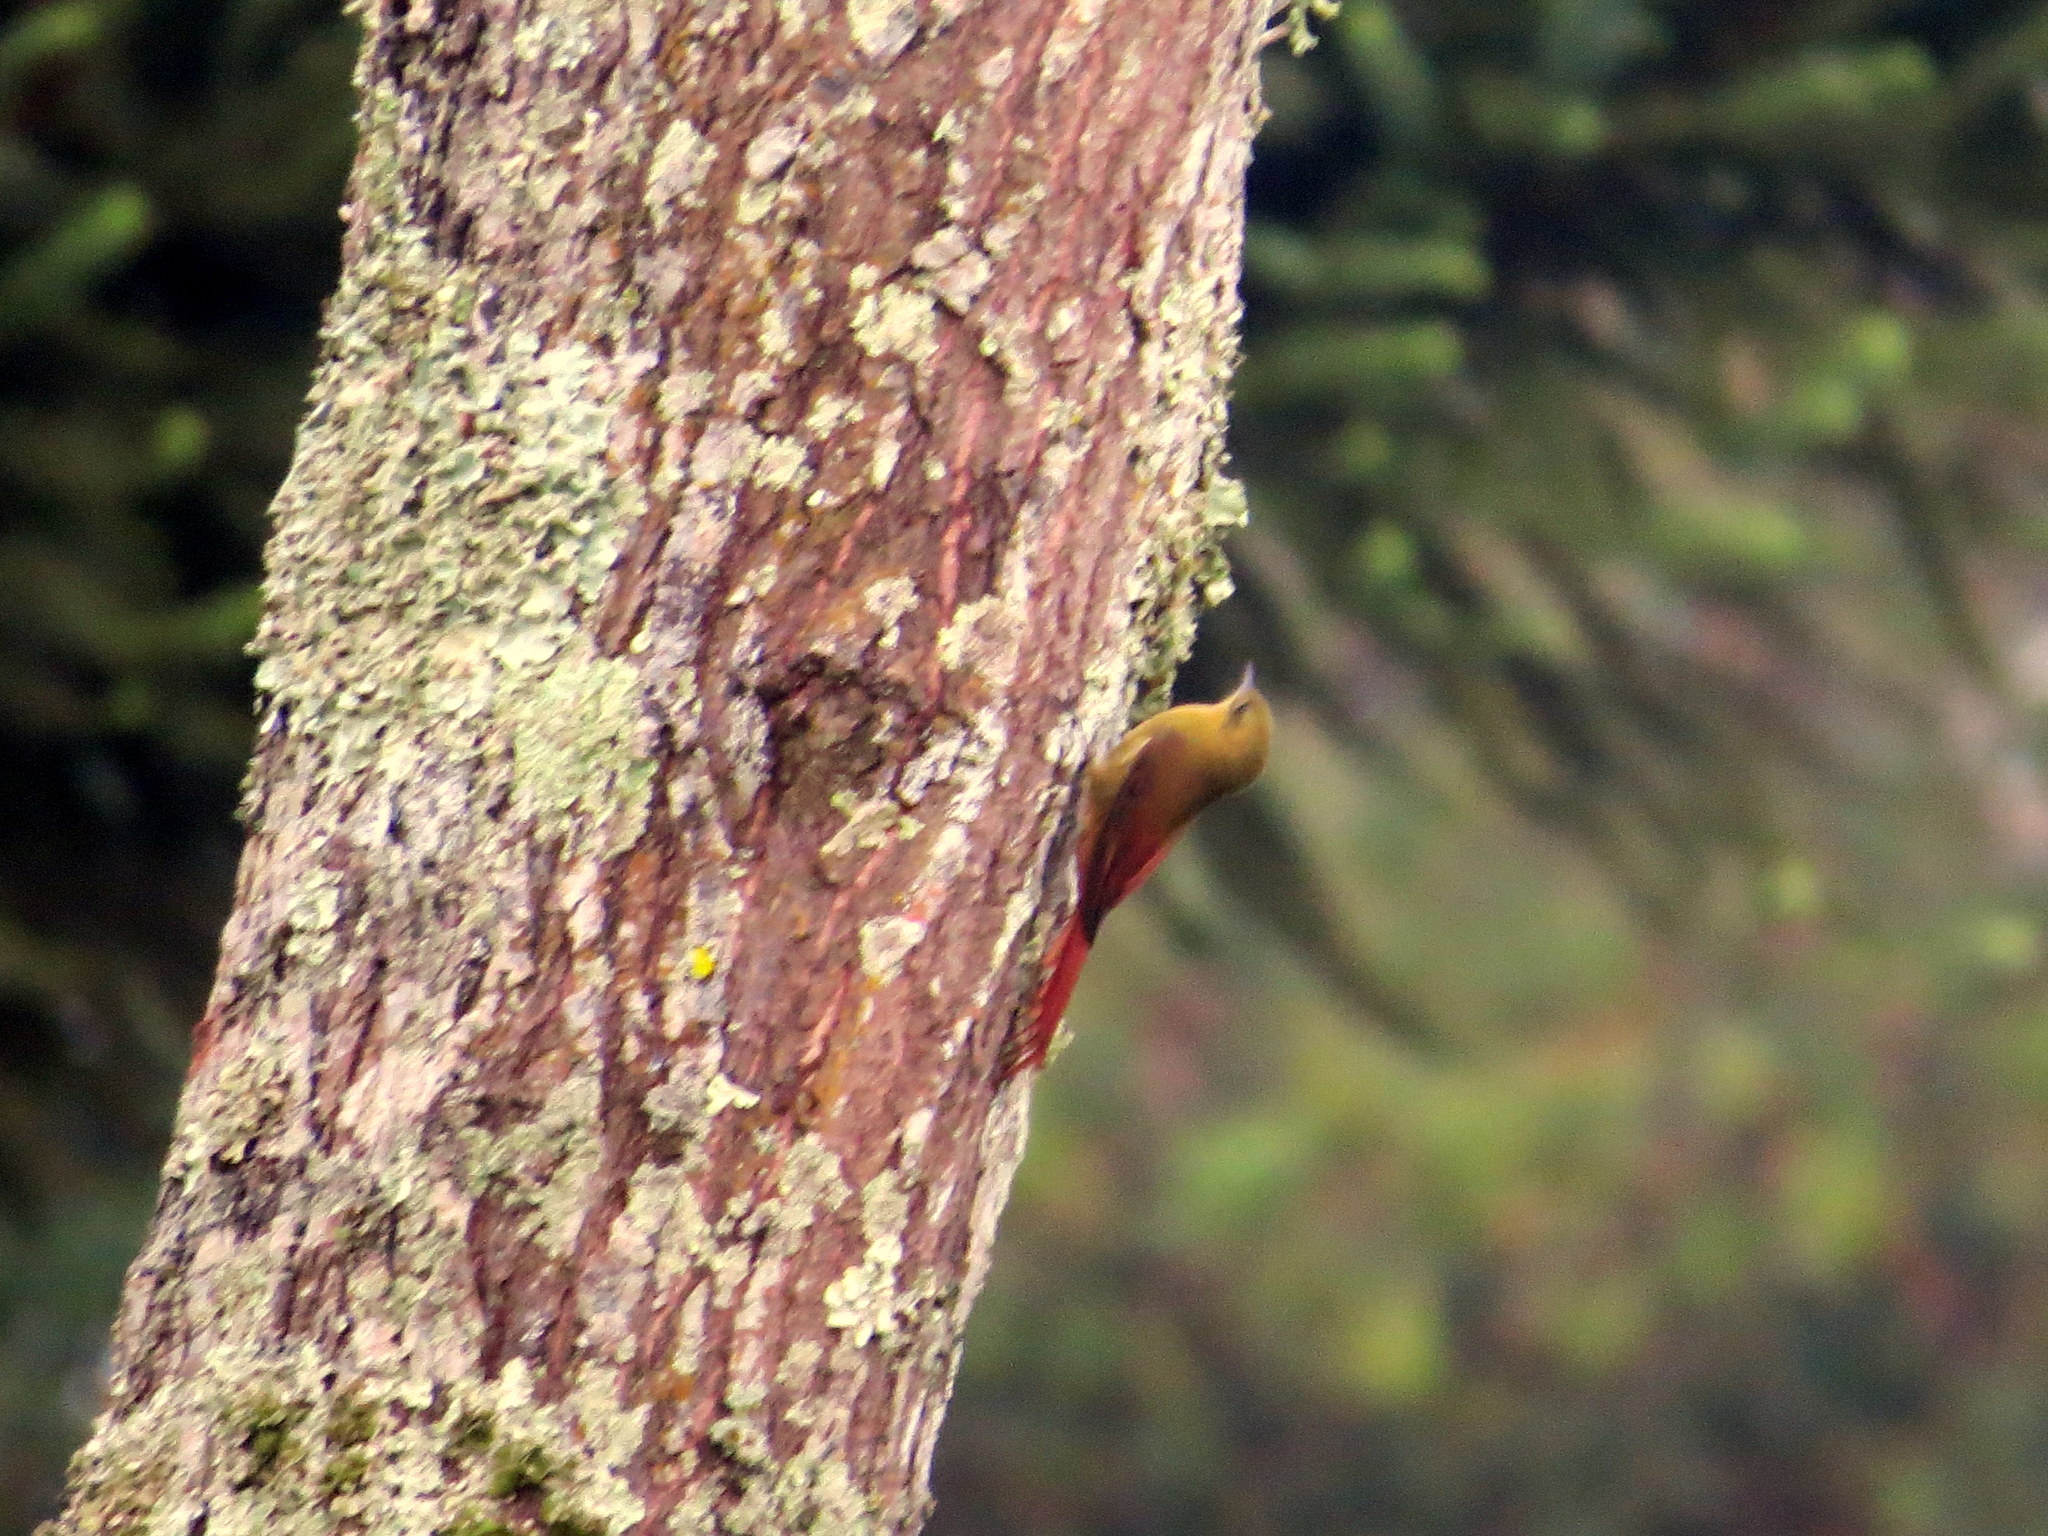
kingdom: Animalia
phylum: Chordata
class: Aves
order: Passeriformes
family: Furnariidae
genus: Sittasomus
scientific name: Sittasomus griseicapillus
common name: Olivaceous woodcreeper
